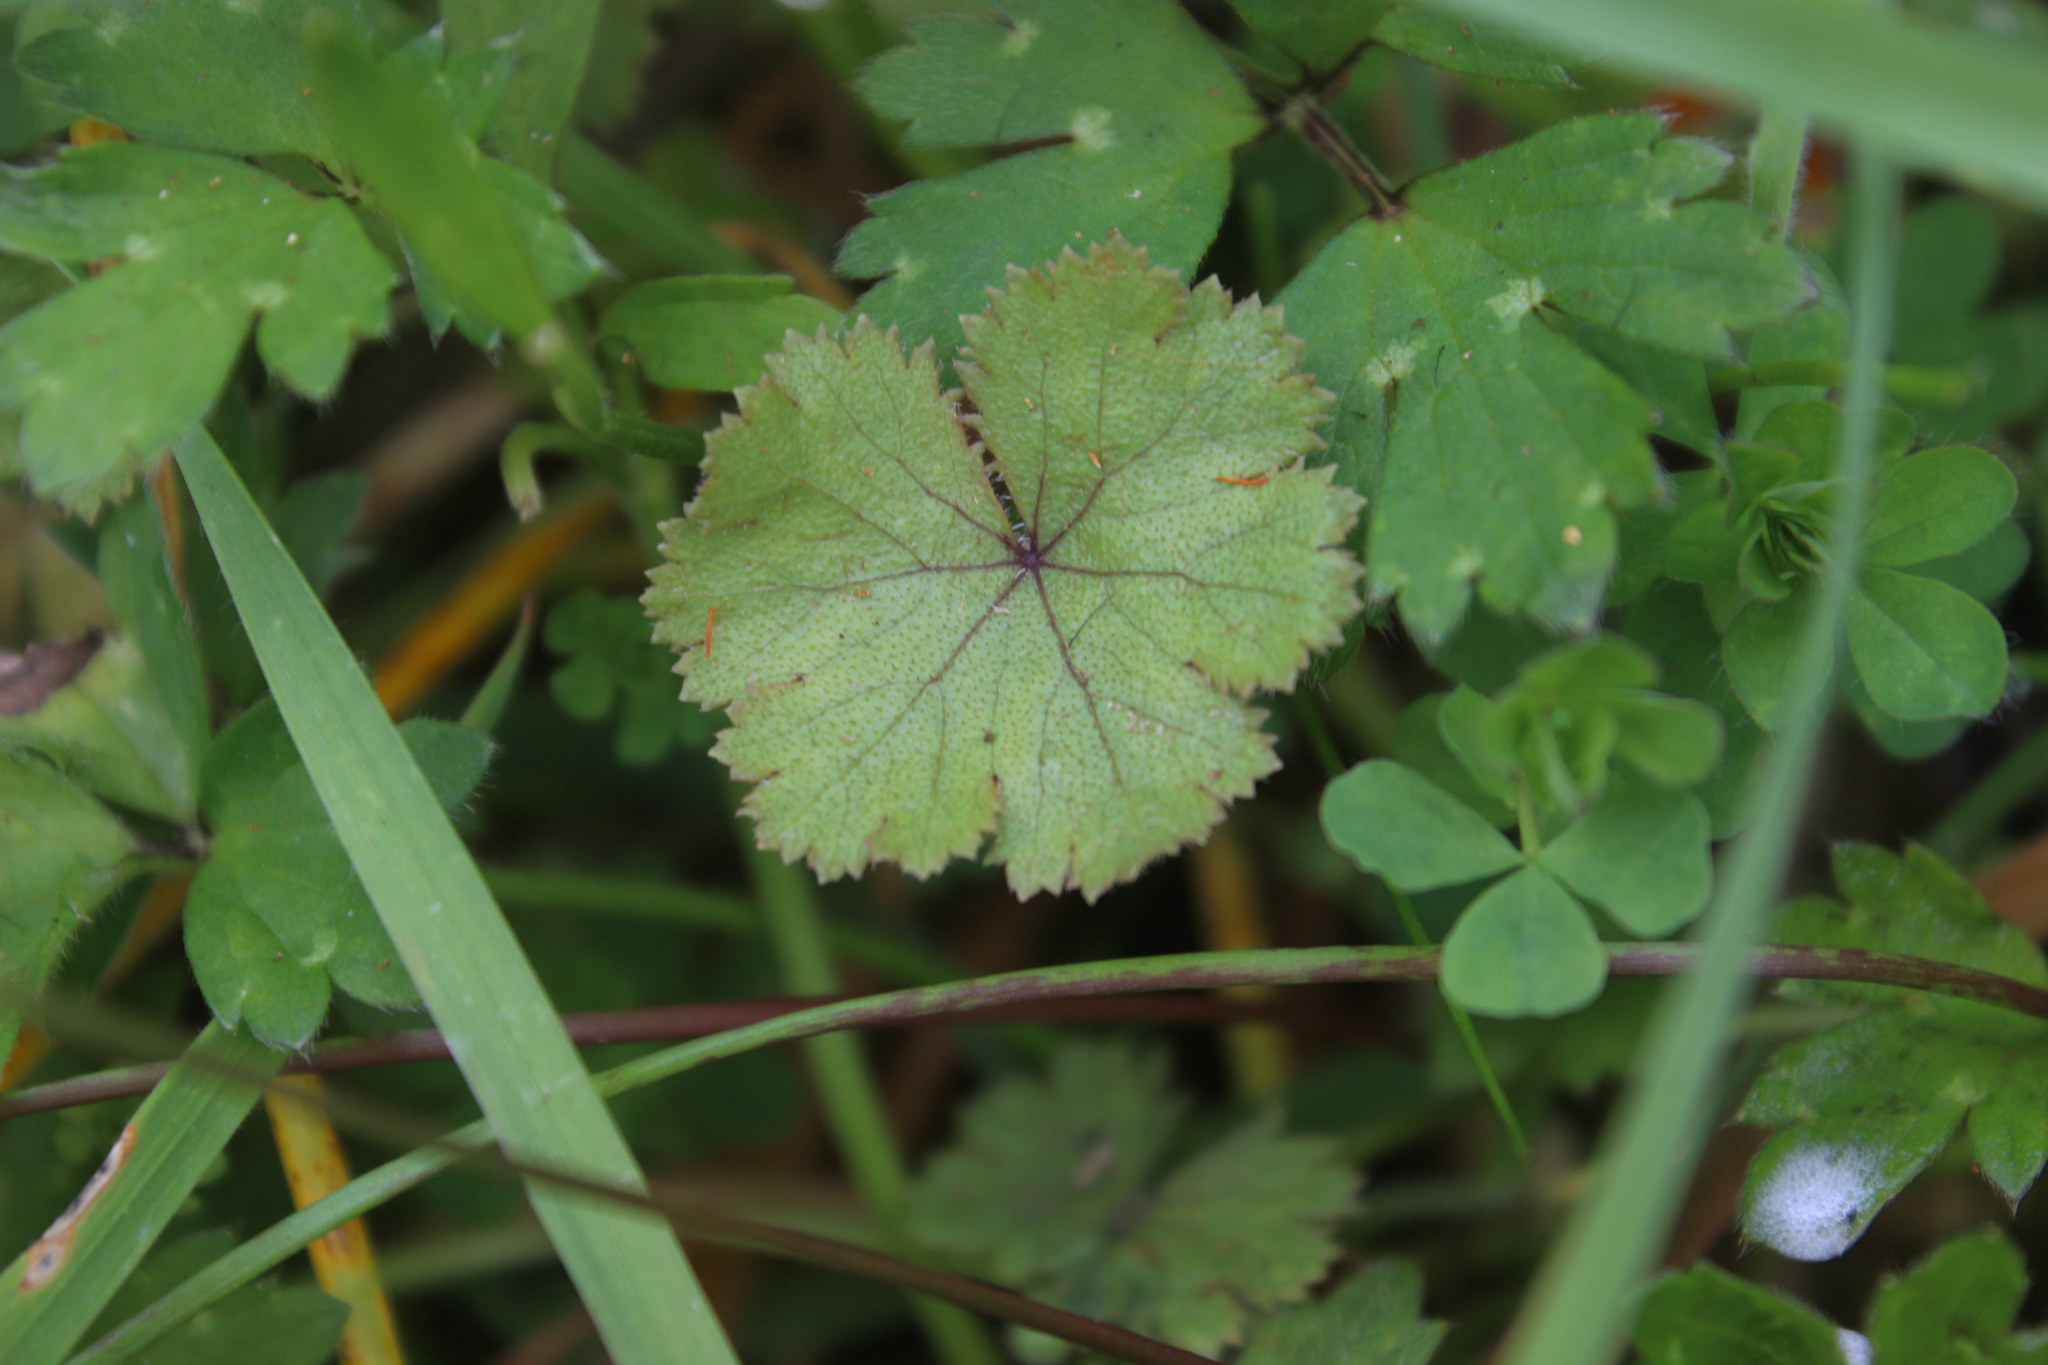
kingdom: Plantae
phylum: Tracheophyta
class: Magnoliopsida
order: Apiales
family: Araliaceae
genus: Hydrocotyle
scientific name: Hydrocotyle moschata
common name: Hairy pennywort
